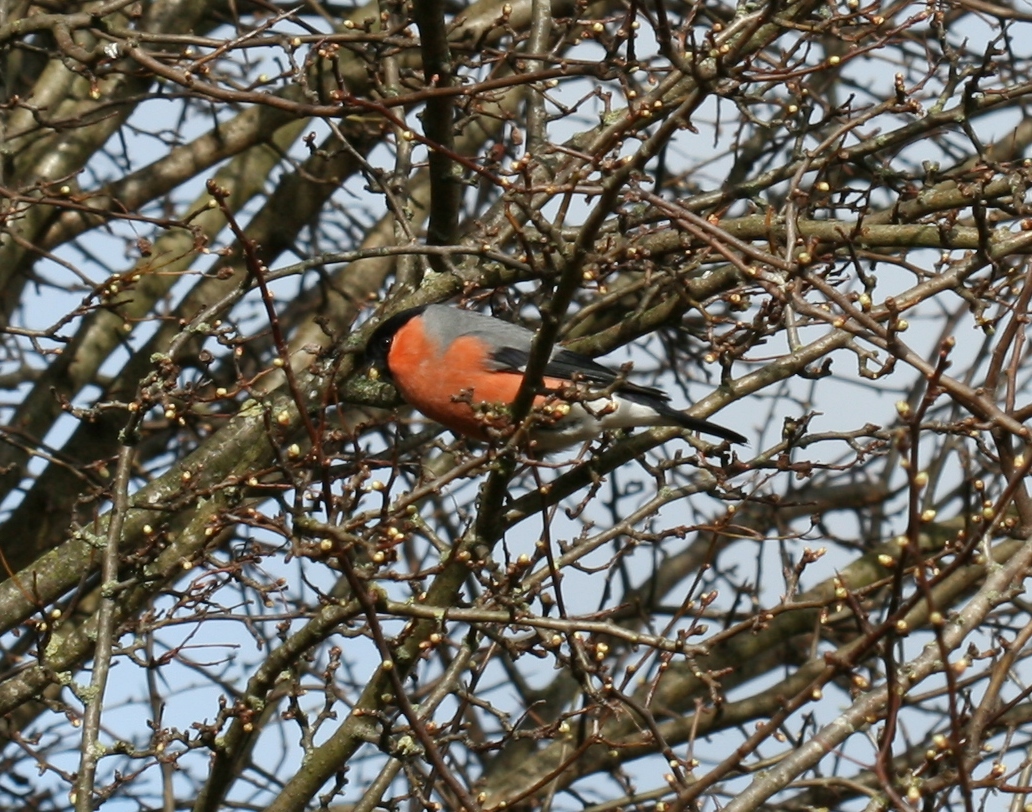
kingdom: Animalia
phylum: Chordata
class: Aves
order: Passeriformes
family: Fringillidae
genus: Pyrrhula
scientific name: Pyrrhula pyrrhula
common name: Eurasian bullfinch
